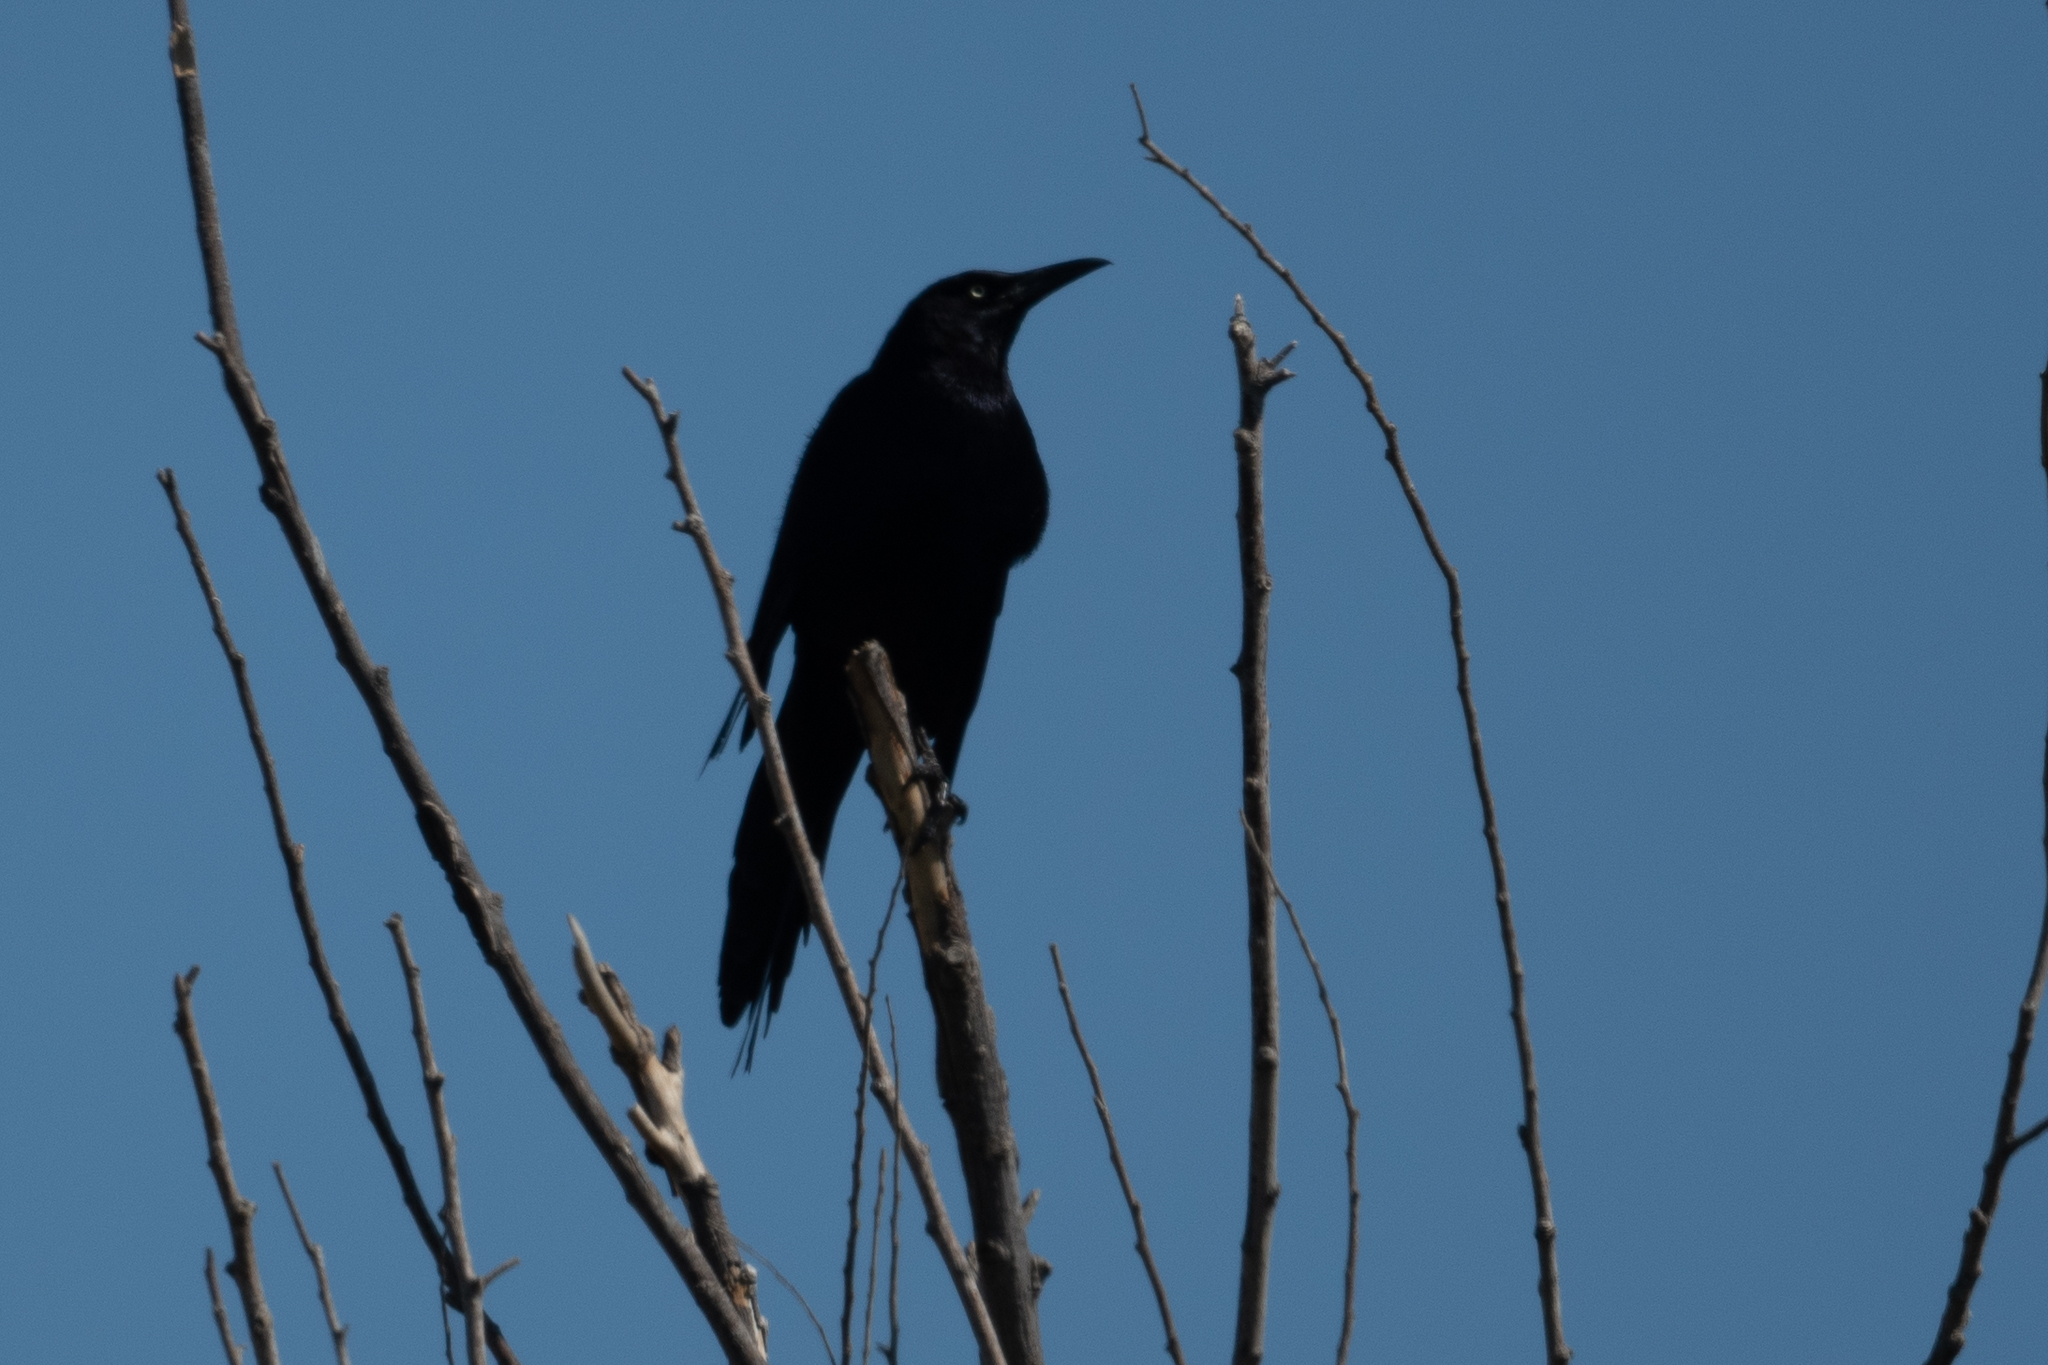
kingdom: Animalia
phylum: Chordata
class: Aves
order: Passeriformes
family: Icteridae
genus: Quiscalus
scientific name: Quiscalus mexicanus
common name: Great-tailed grackle
